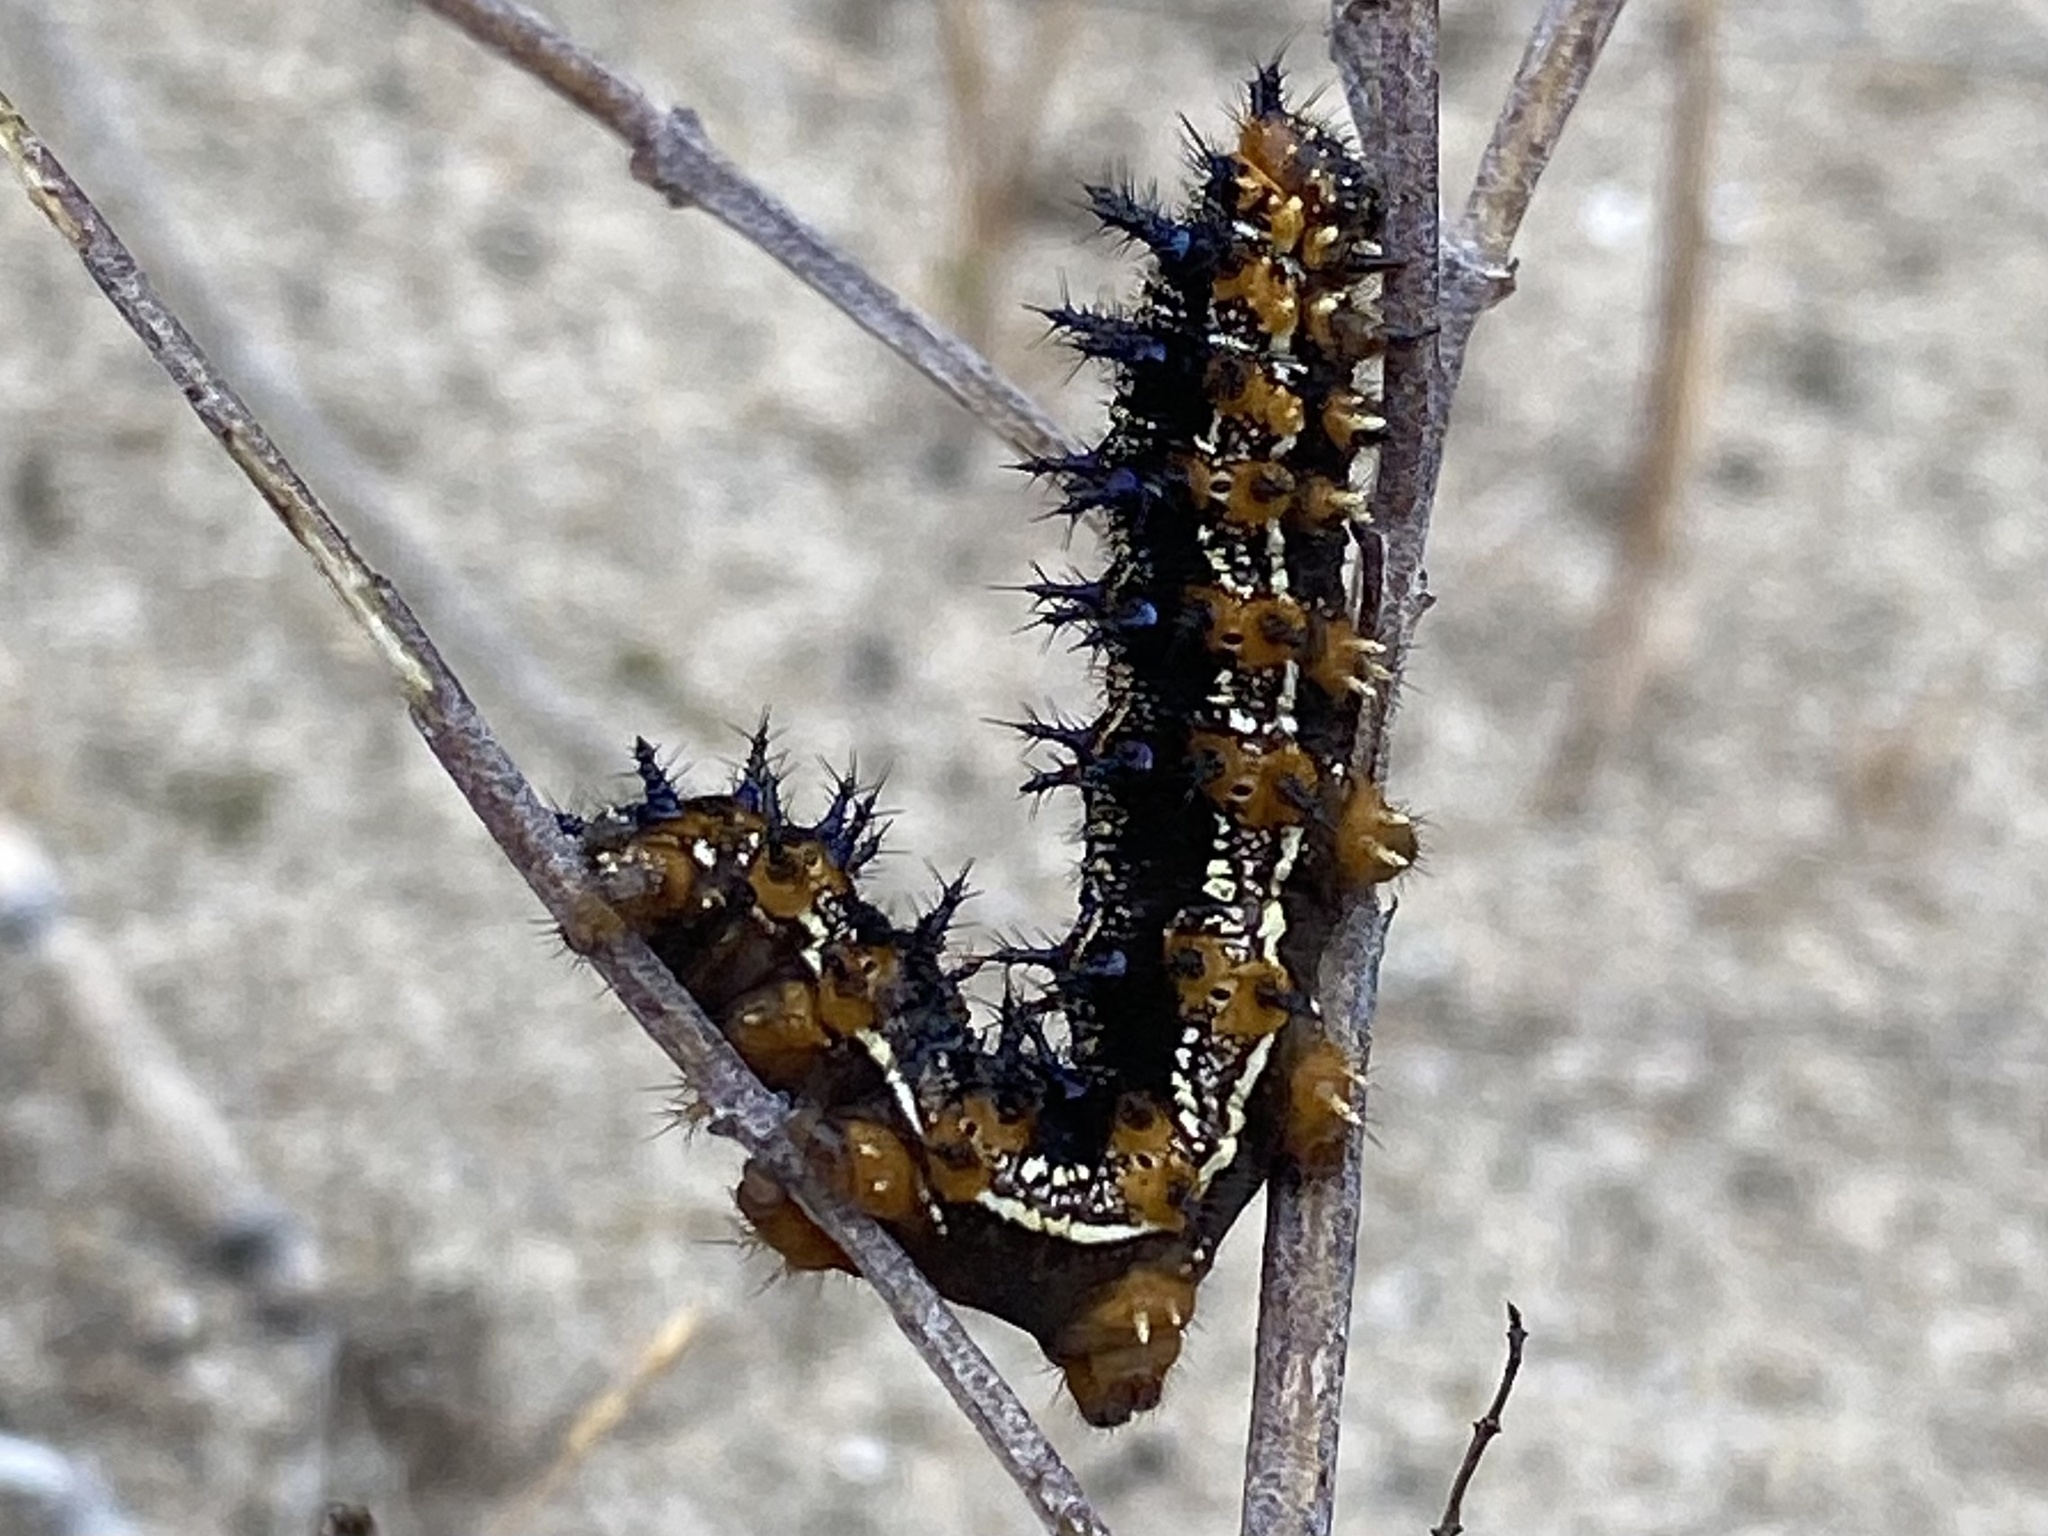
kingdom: Animalia
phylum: Arthropoda
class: Insecta
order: Lepidoptera
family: Nymphalidae
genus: Junonia
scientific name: Junonia coenia
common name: Common buckeye
